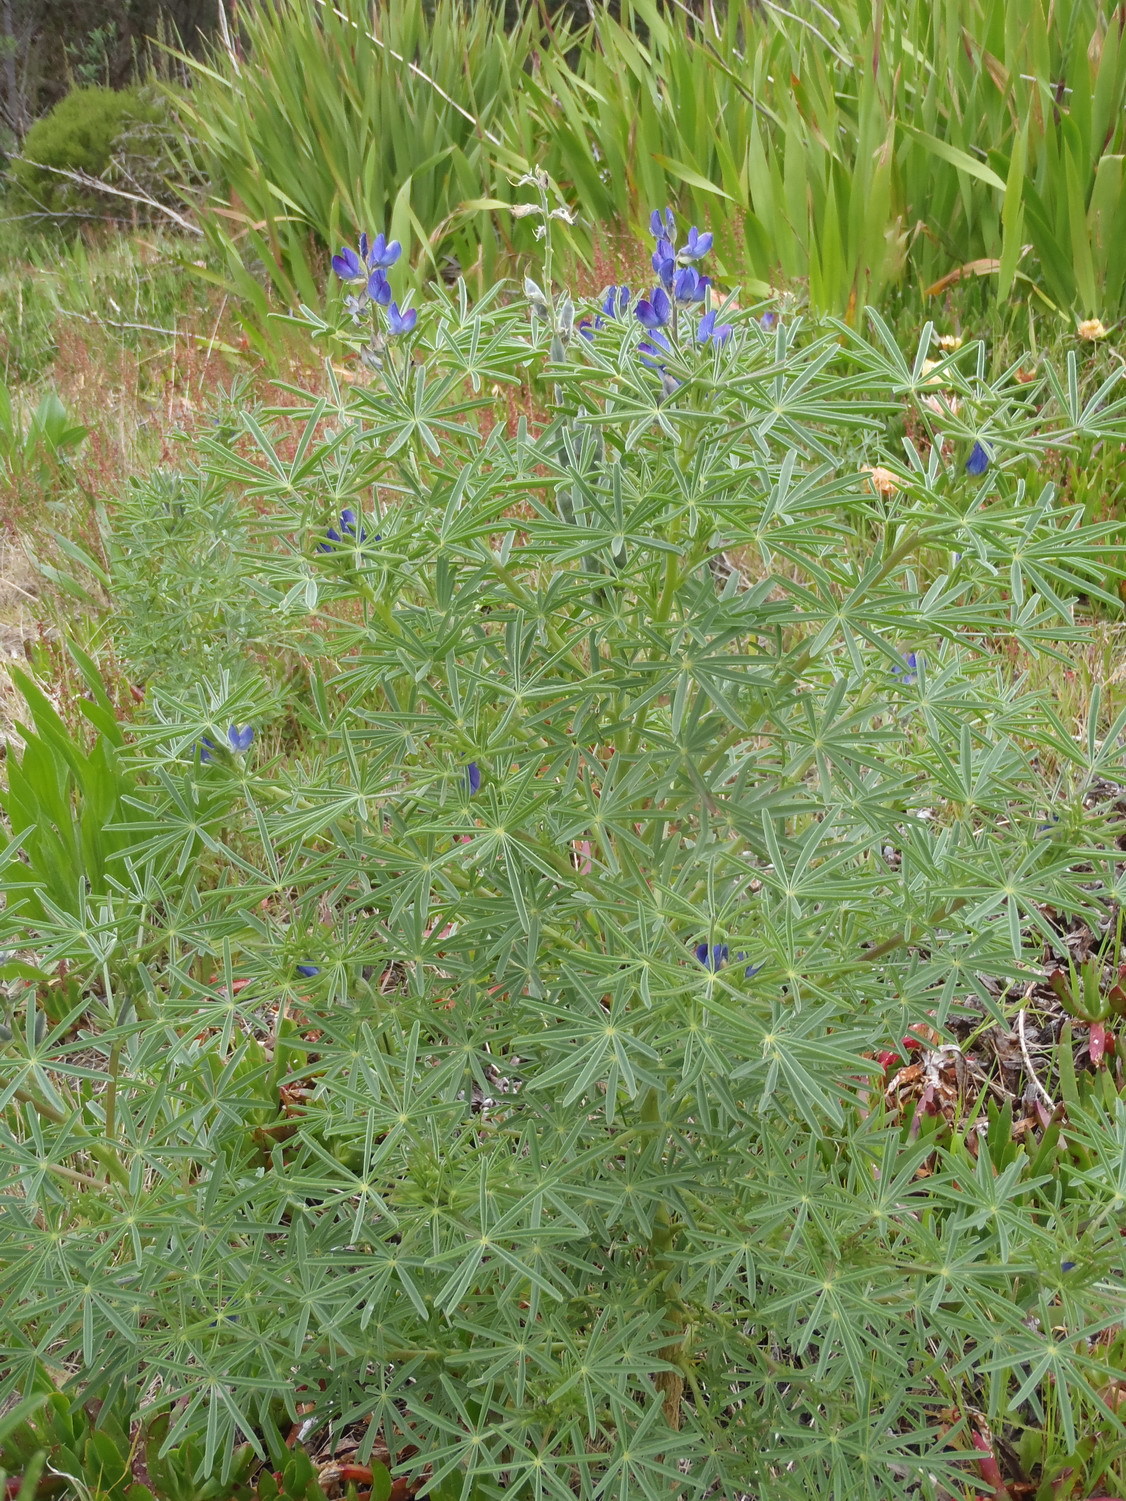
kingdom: Plantae
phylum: Tracheophyta
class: Magnoliopsida
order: Fabales
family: Fabaceae
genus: Lupinus
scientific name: Lupinus angustifolius
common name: Narrow-leaved lupin
